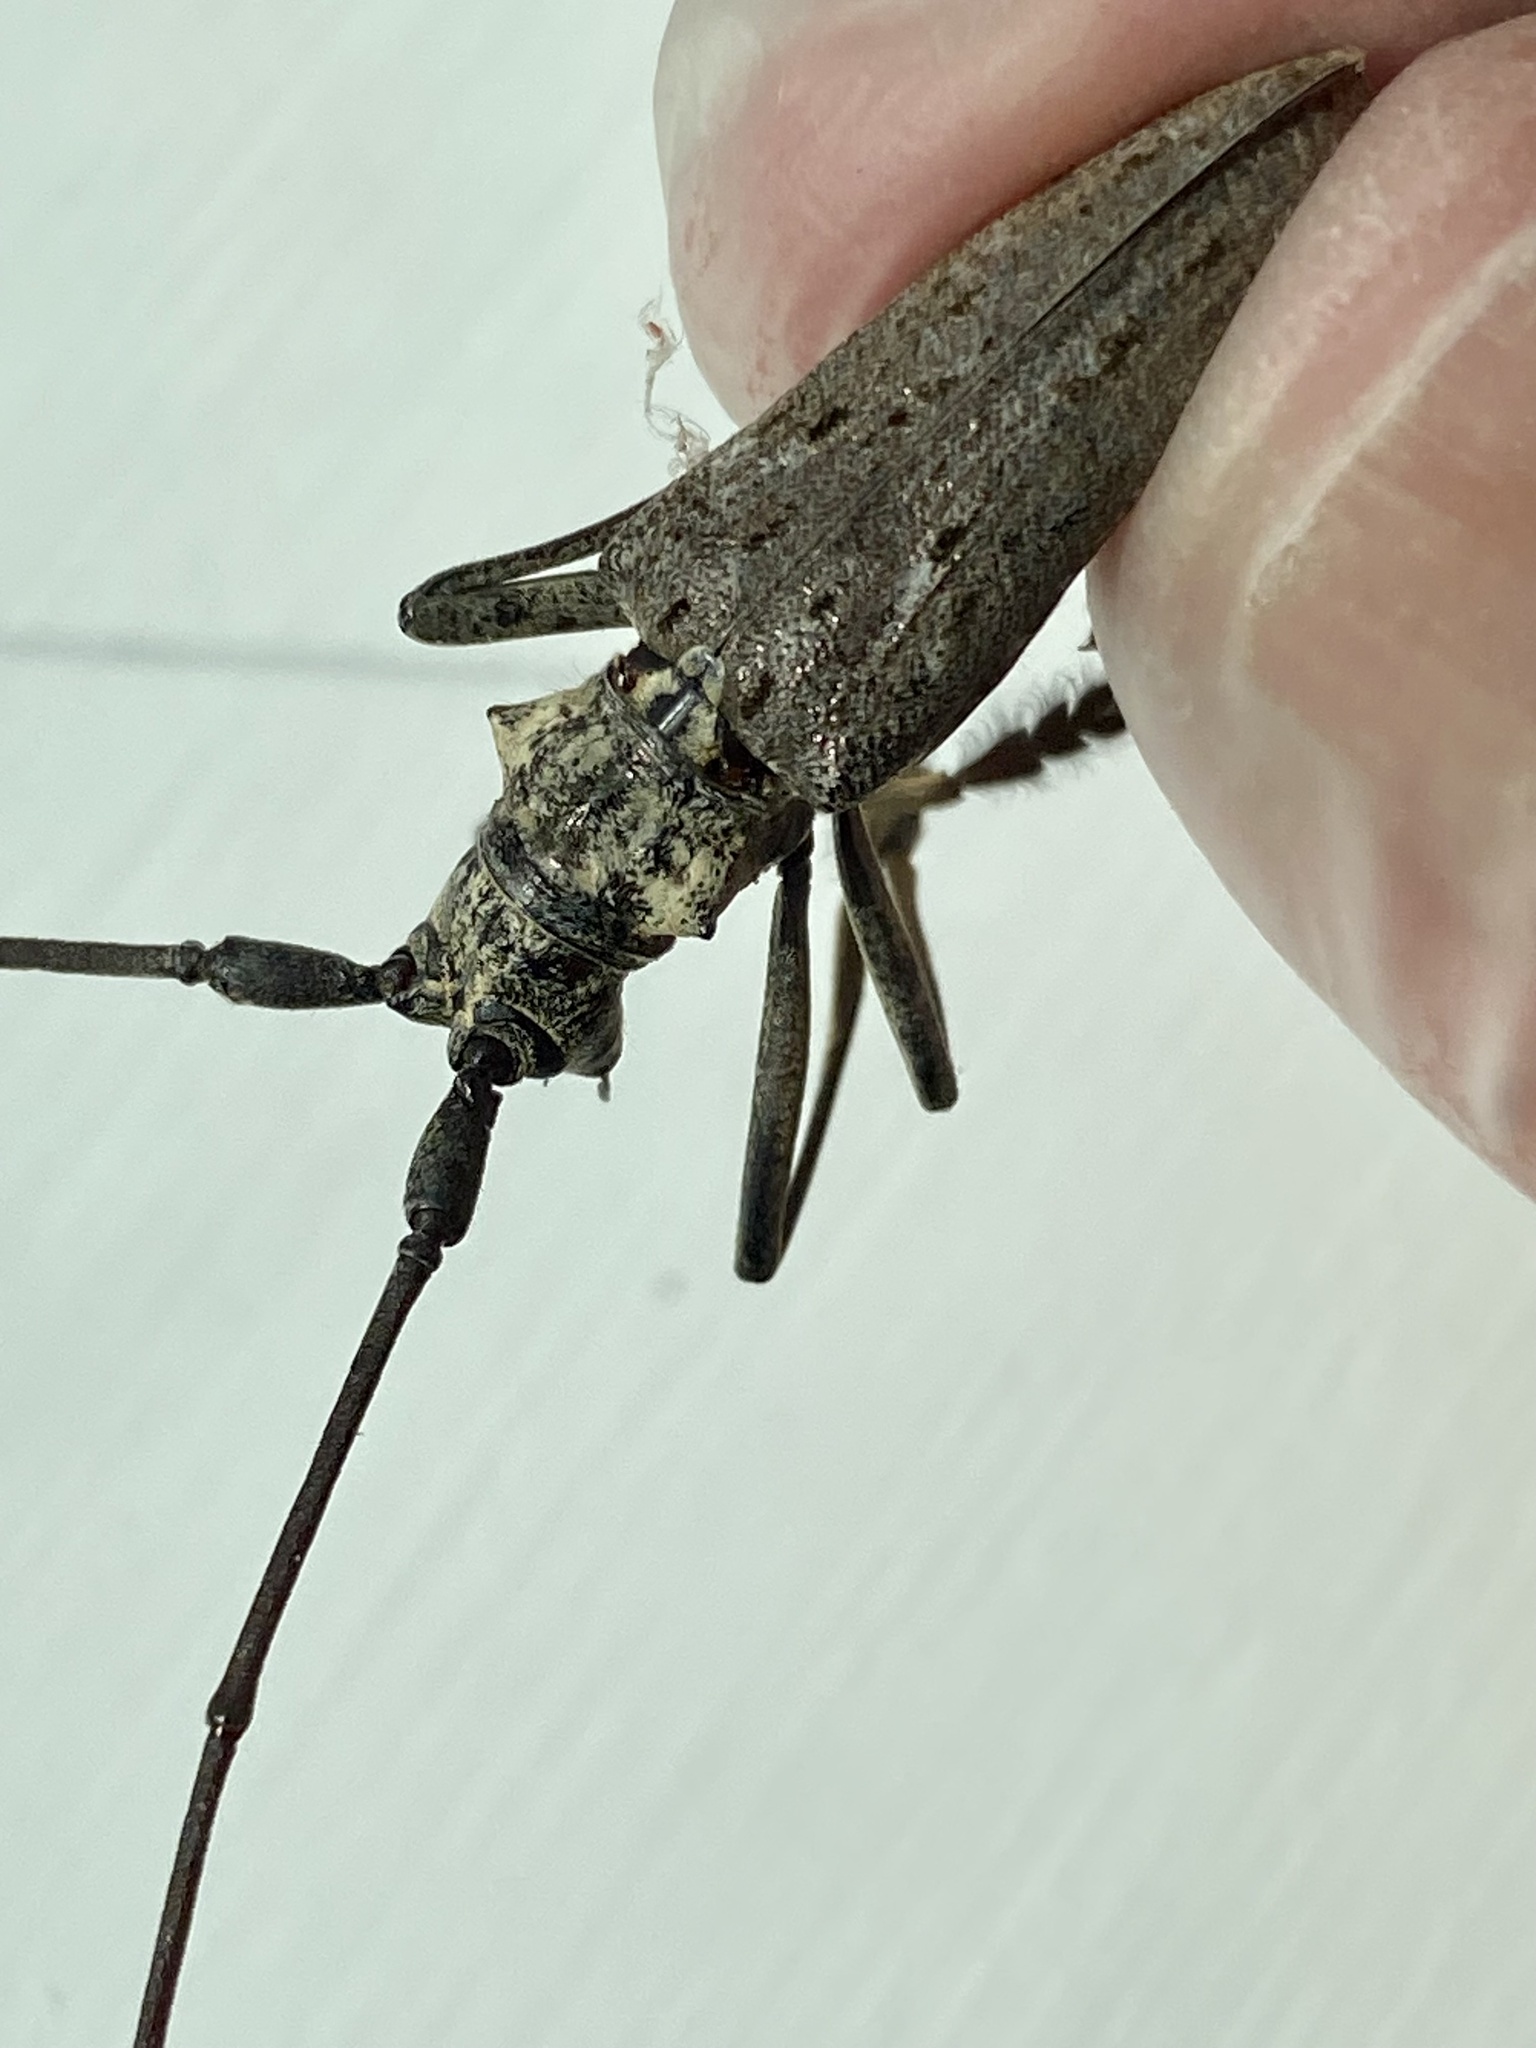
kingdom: Animalia
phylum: Arthropoda
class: Insecta
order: Coleoptera
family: Cerambycidae
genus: Monochamus
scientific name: Monochamus notatus
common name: Northeastern pine sawyer beetle
